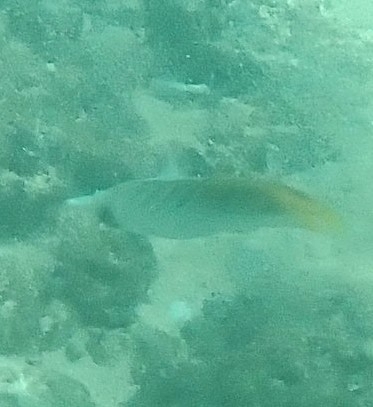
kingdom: Animalia
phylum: Chordata
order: Perciformes
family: Chaetodontidae
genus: Chaetodon
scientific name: Chaetodon auriga
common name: Threadfin butterflyfish
